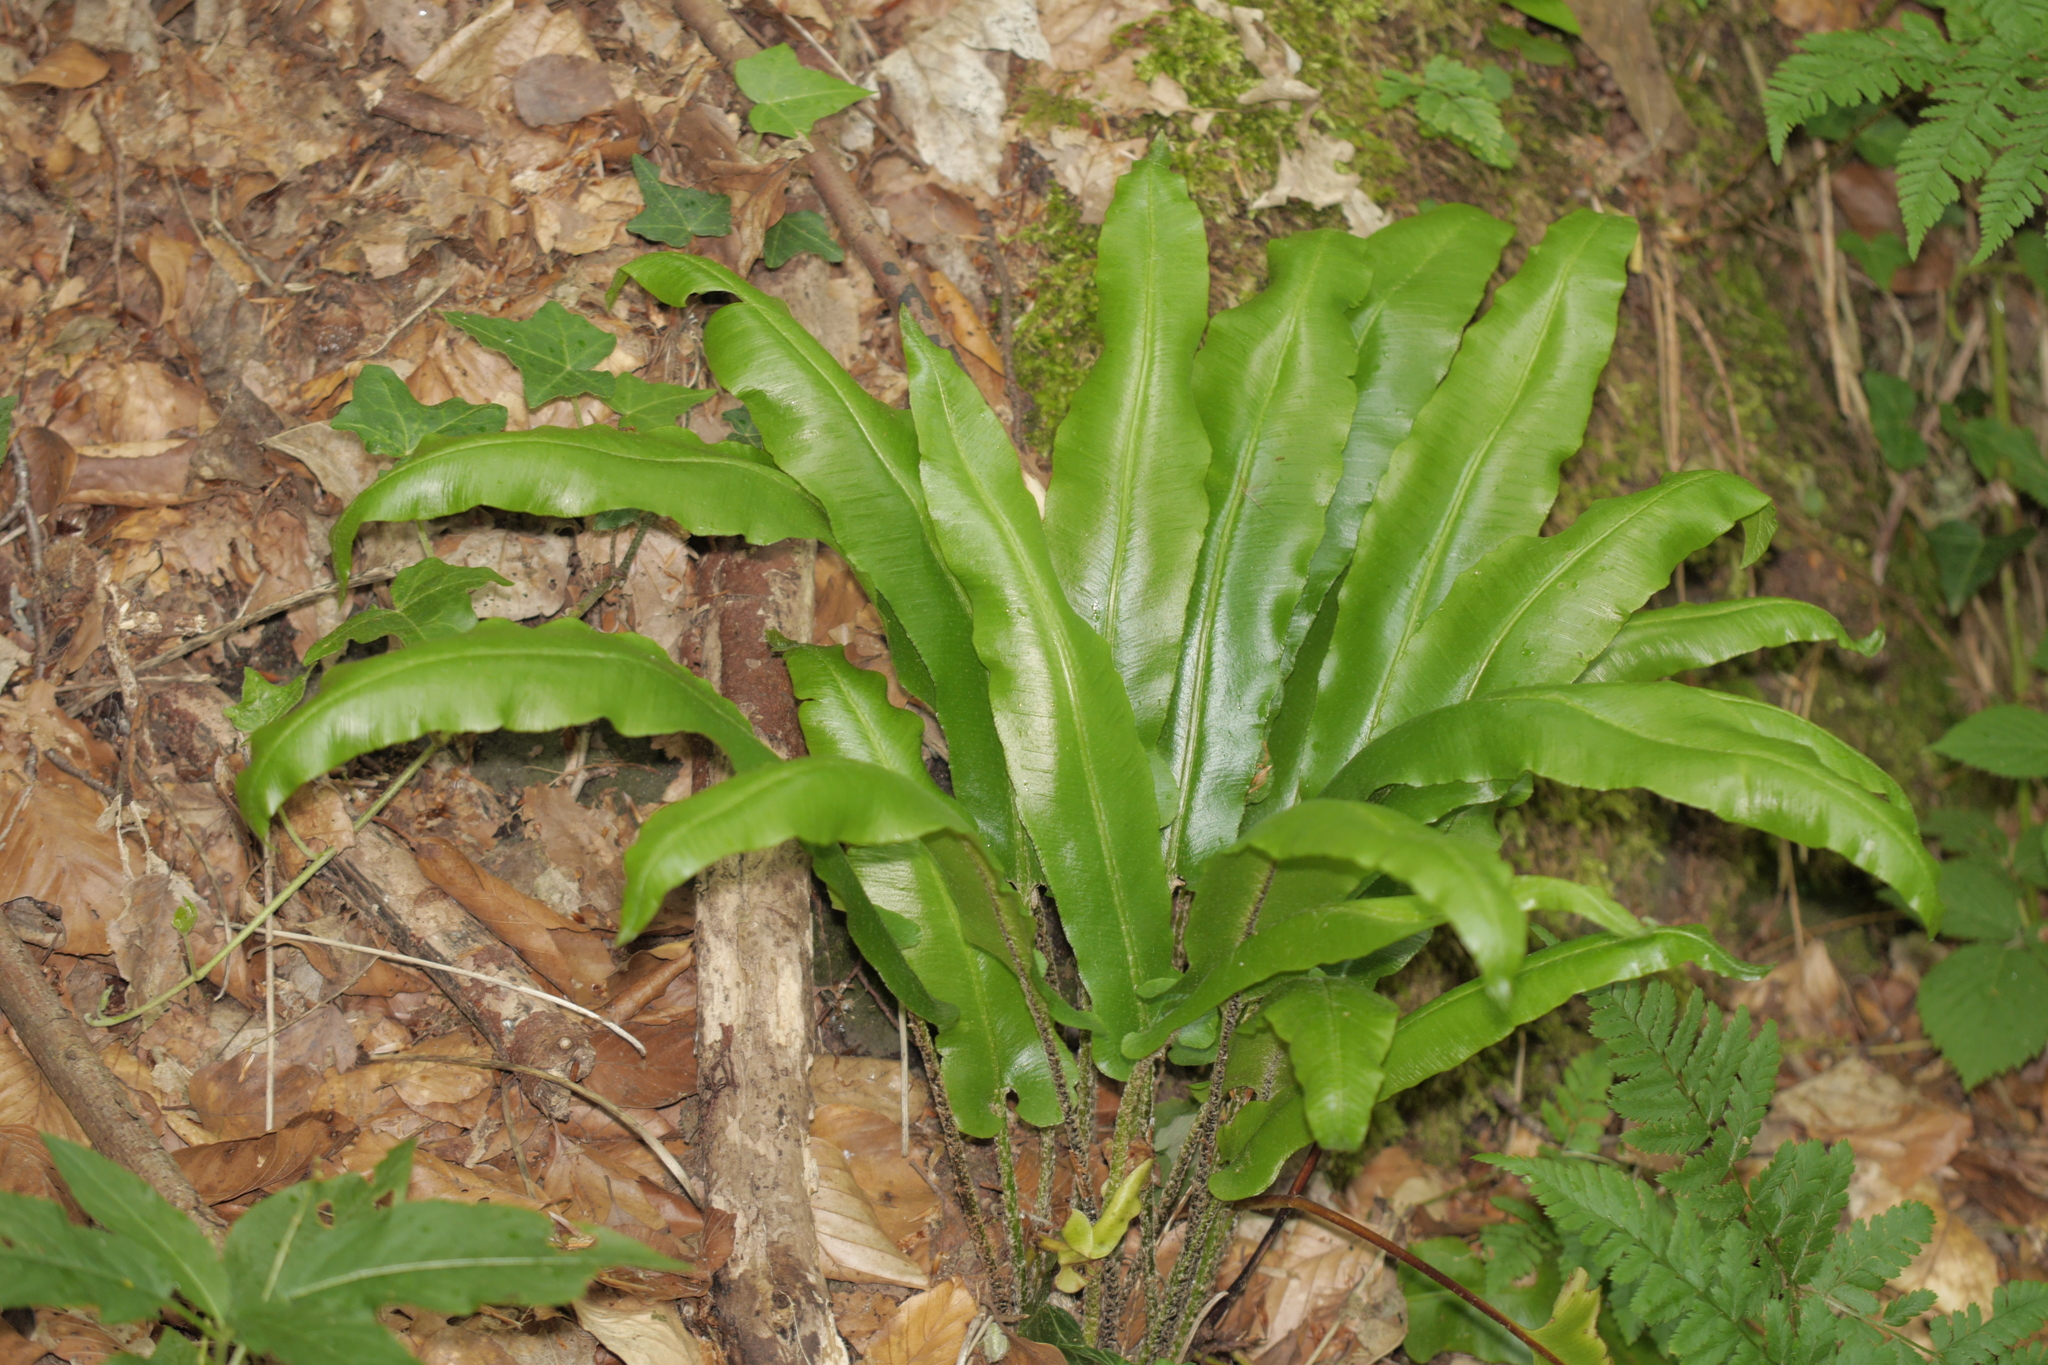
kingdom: Plantae
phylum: Tracheophyta
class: Polypodiopsida
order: Polypodiales
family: Aspleniaceae
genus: Asplenium
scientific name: Asplenium scolopendrium
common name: Hart's-tongue fern
